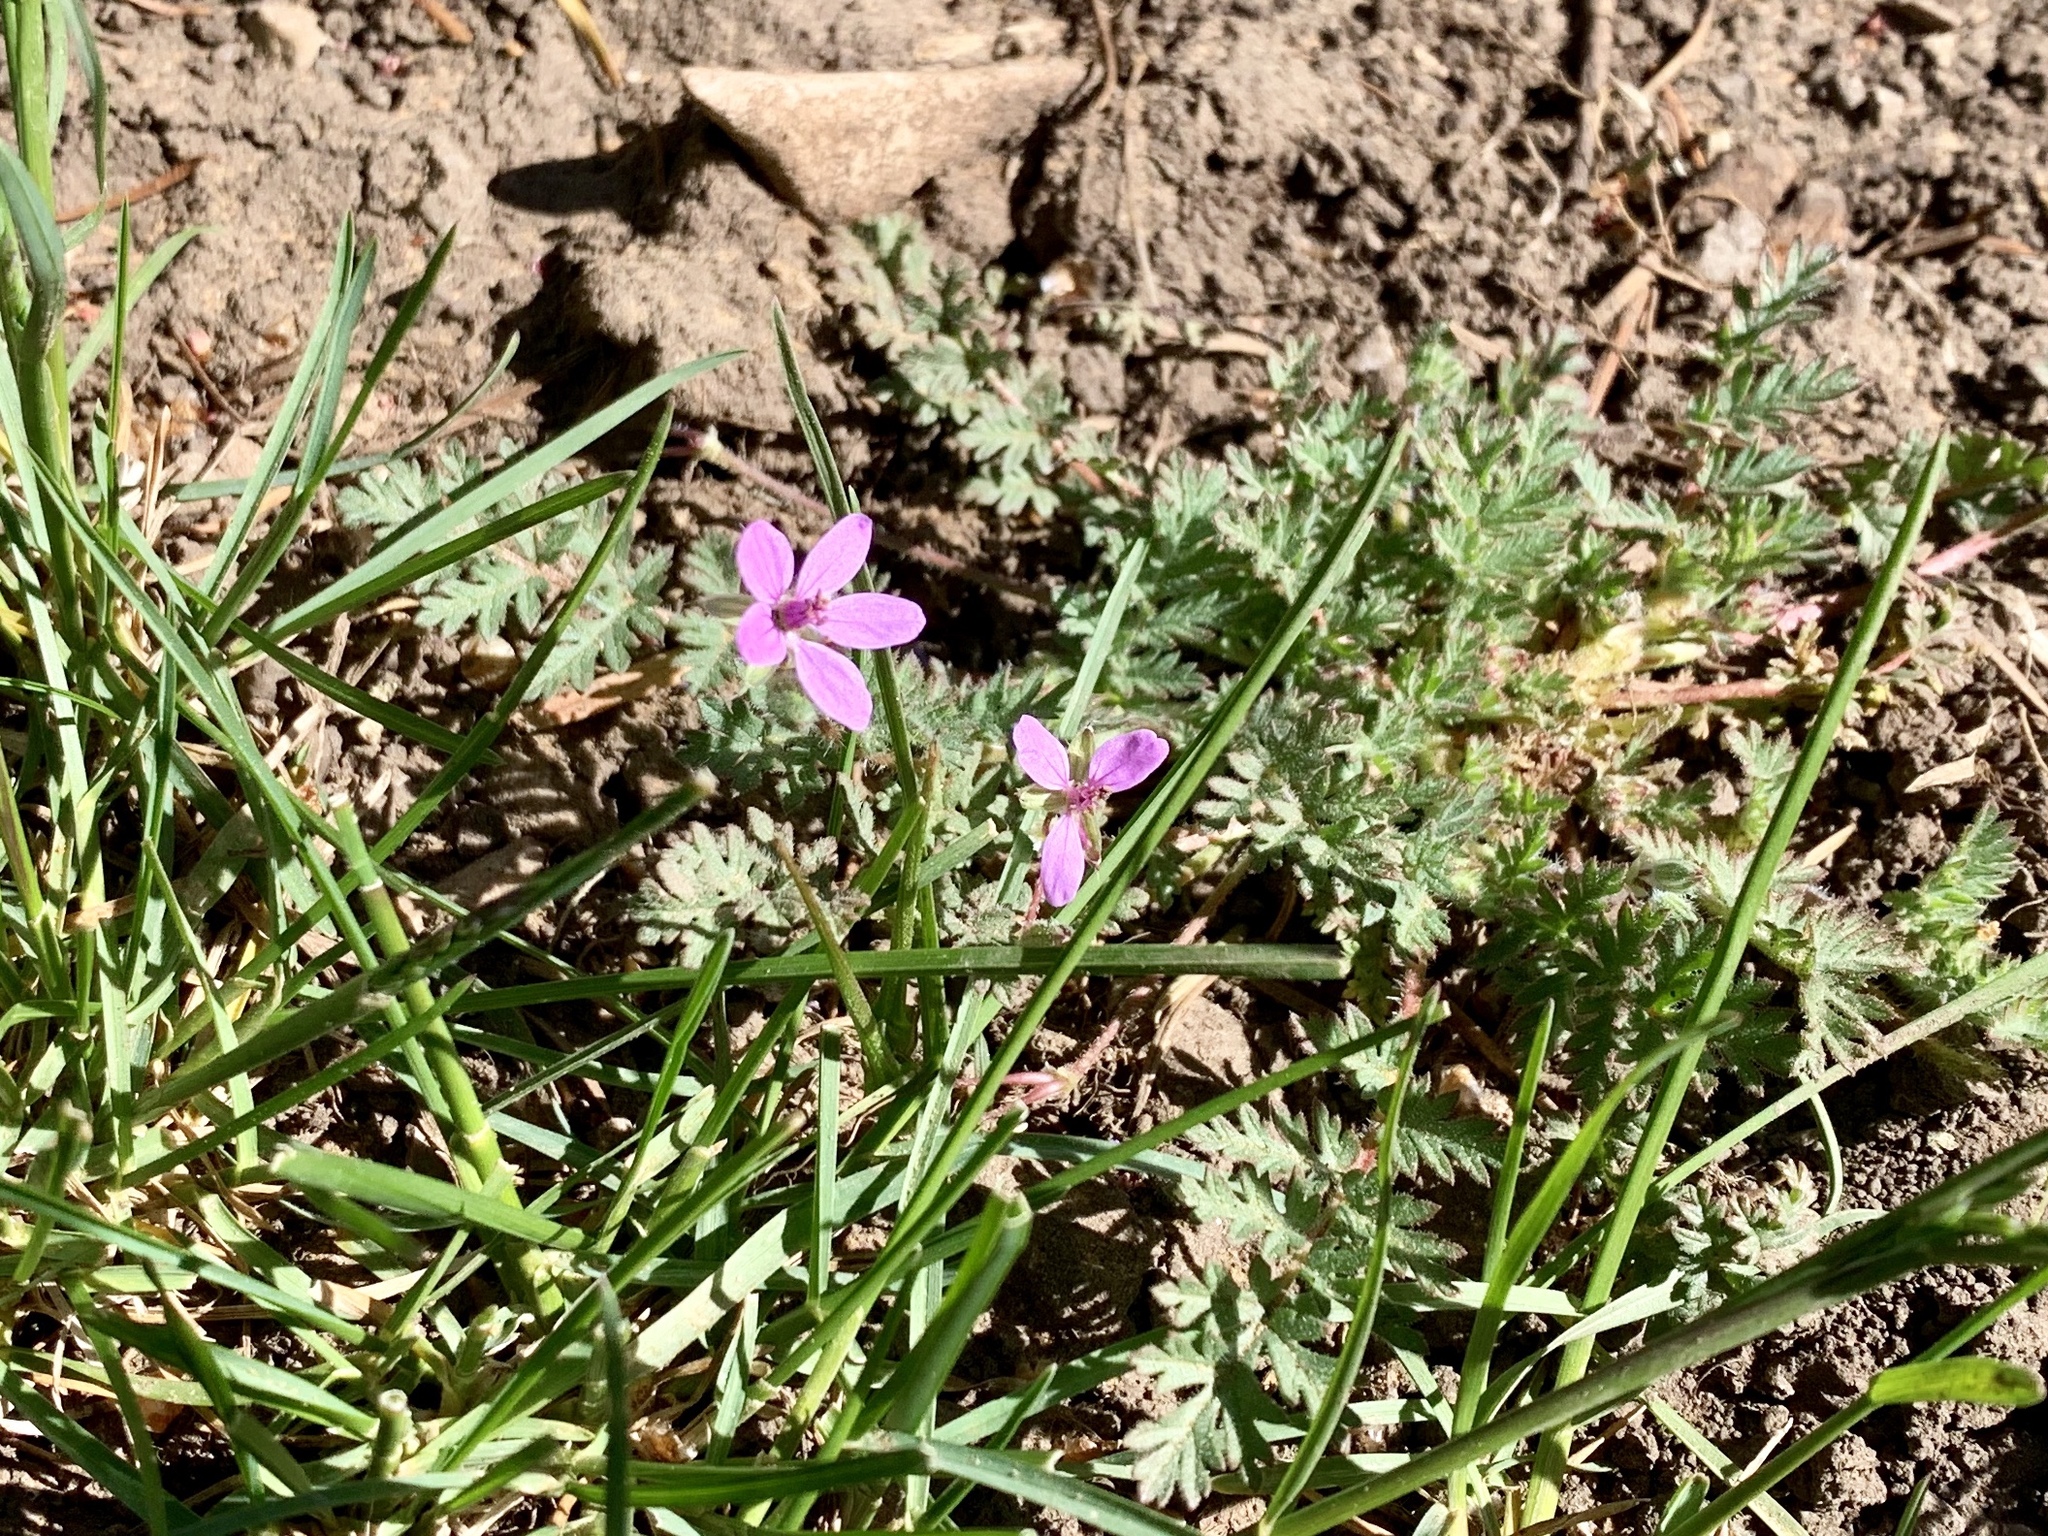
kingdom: Plantae
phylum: Tracheophyta
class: Magnoliopsida
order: Geraniales
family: Geraniaceae
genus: Erodium
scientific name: Erodium cicutarium
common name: Common stork's-bill
